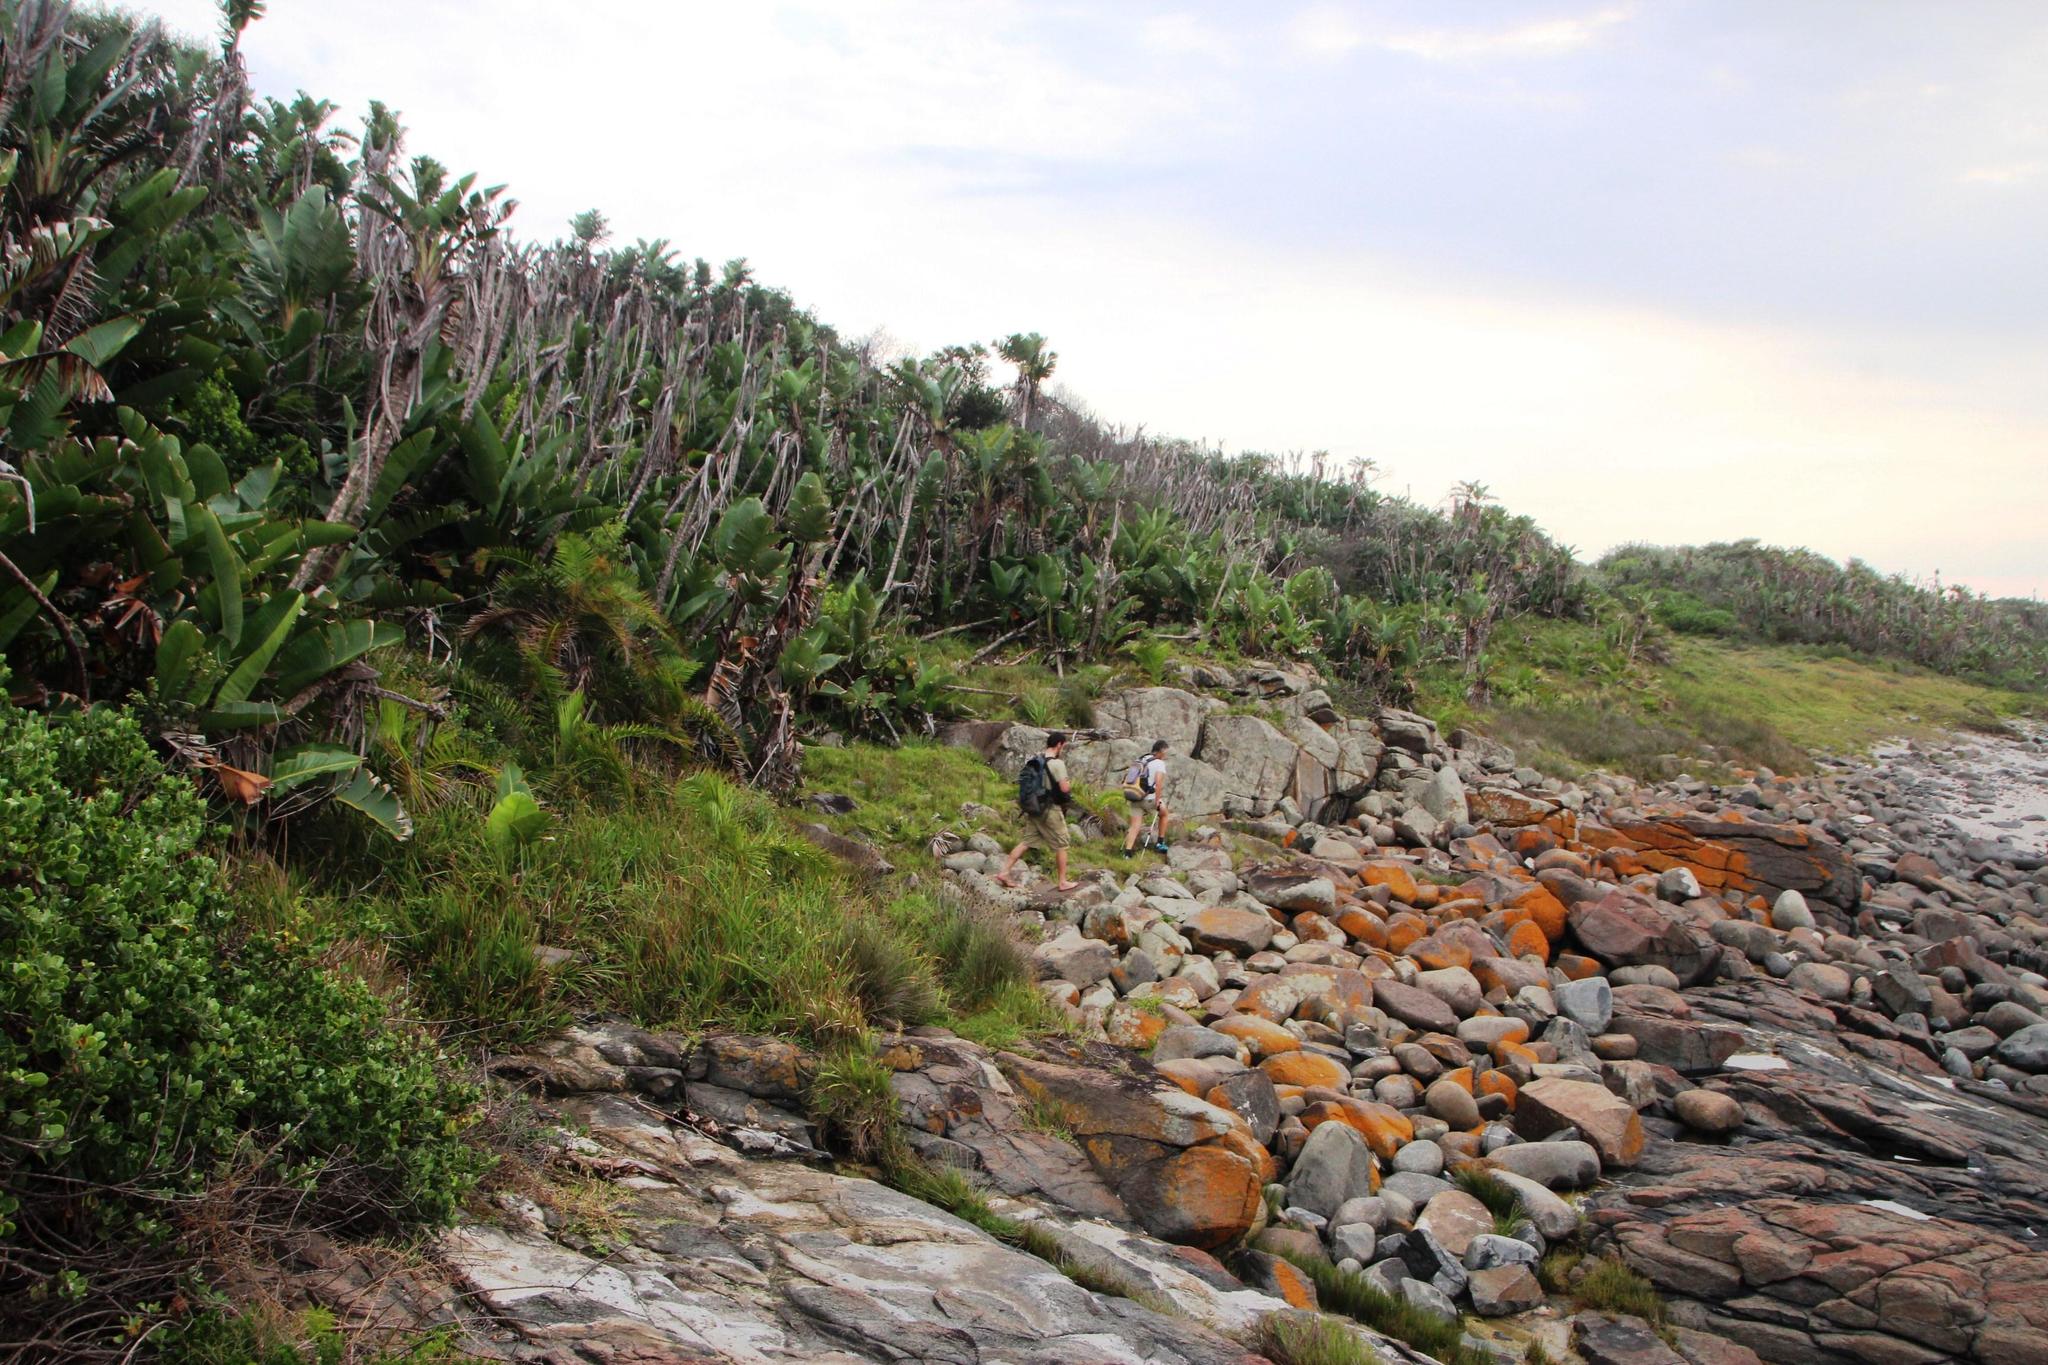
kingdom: Plantae
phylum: Tracheophyta
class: Liliopsida
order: Zingiberales
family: Strelitziaceae
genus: Strelitzia
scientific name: Strelitzia nicolai
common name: Bird-of-paradise tree
